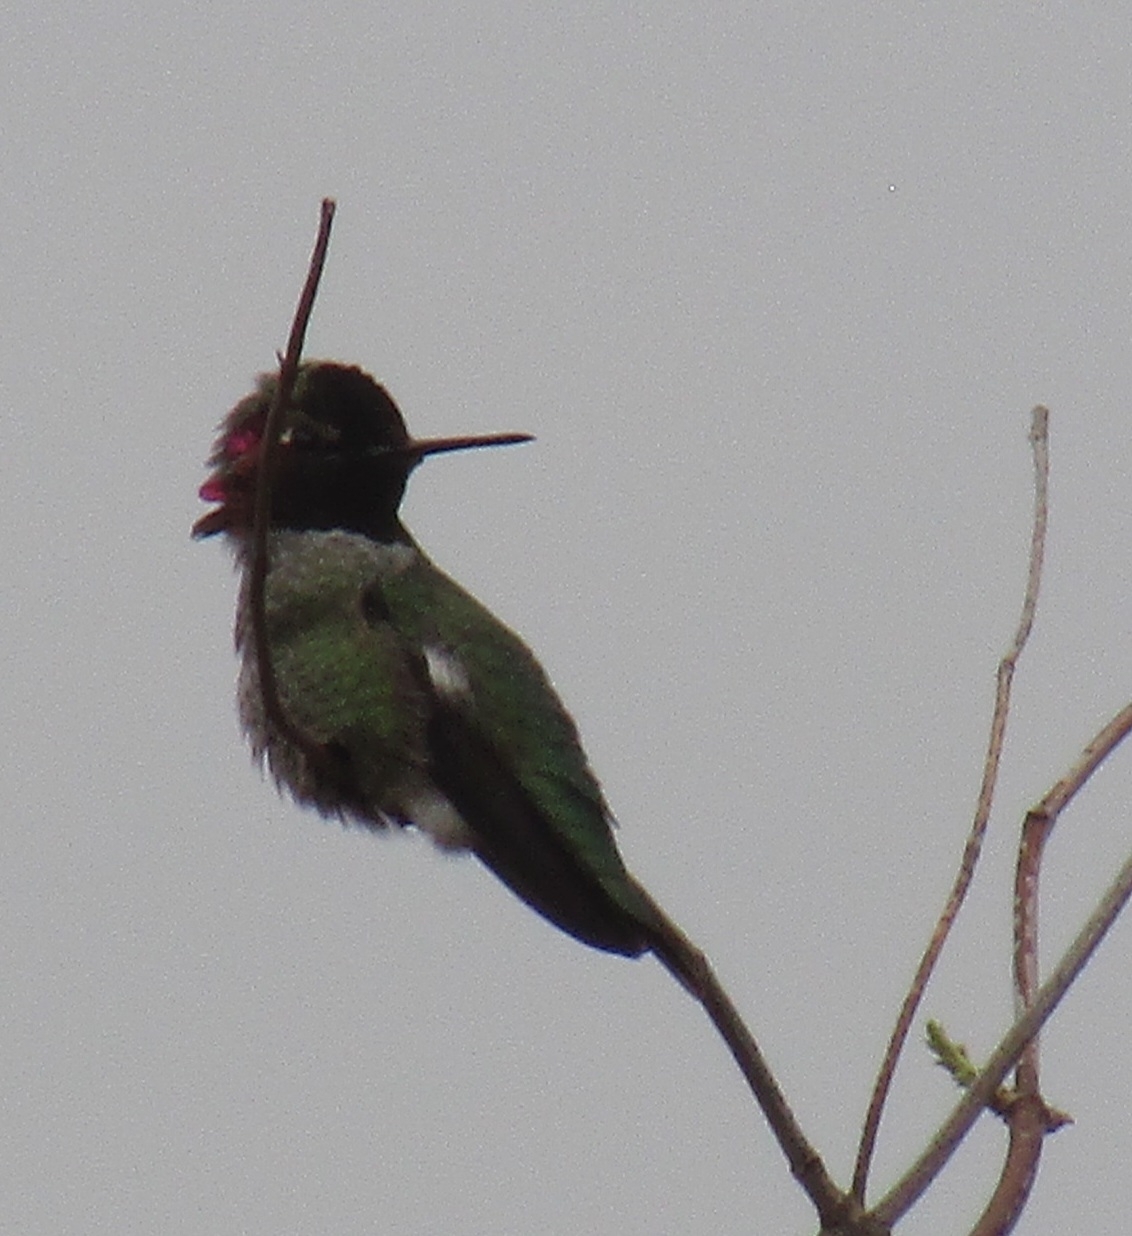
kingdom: Animalia
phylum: Chordata
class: Aves
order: Apodiformes
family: Trochilidae
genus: Calypte
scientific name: Calypte anna
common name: Anna's hummingbird
